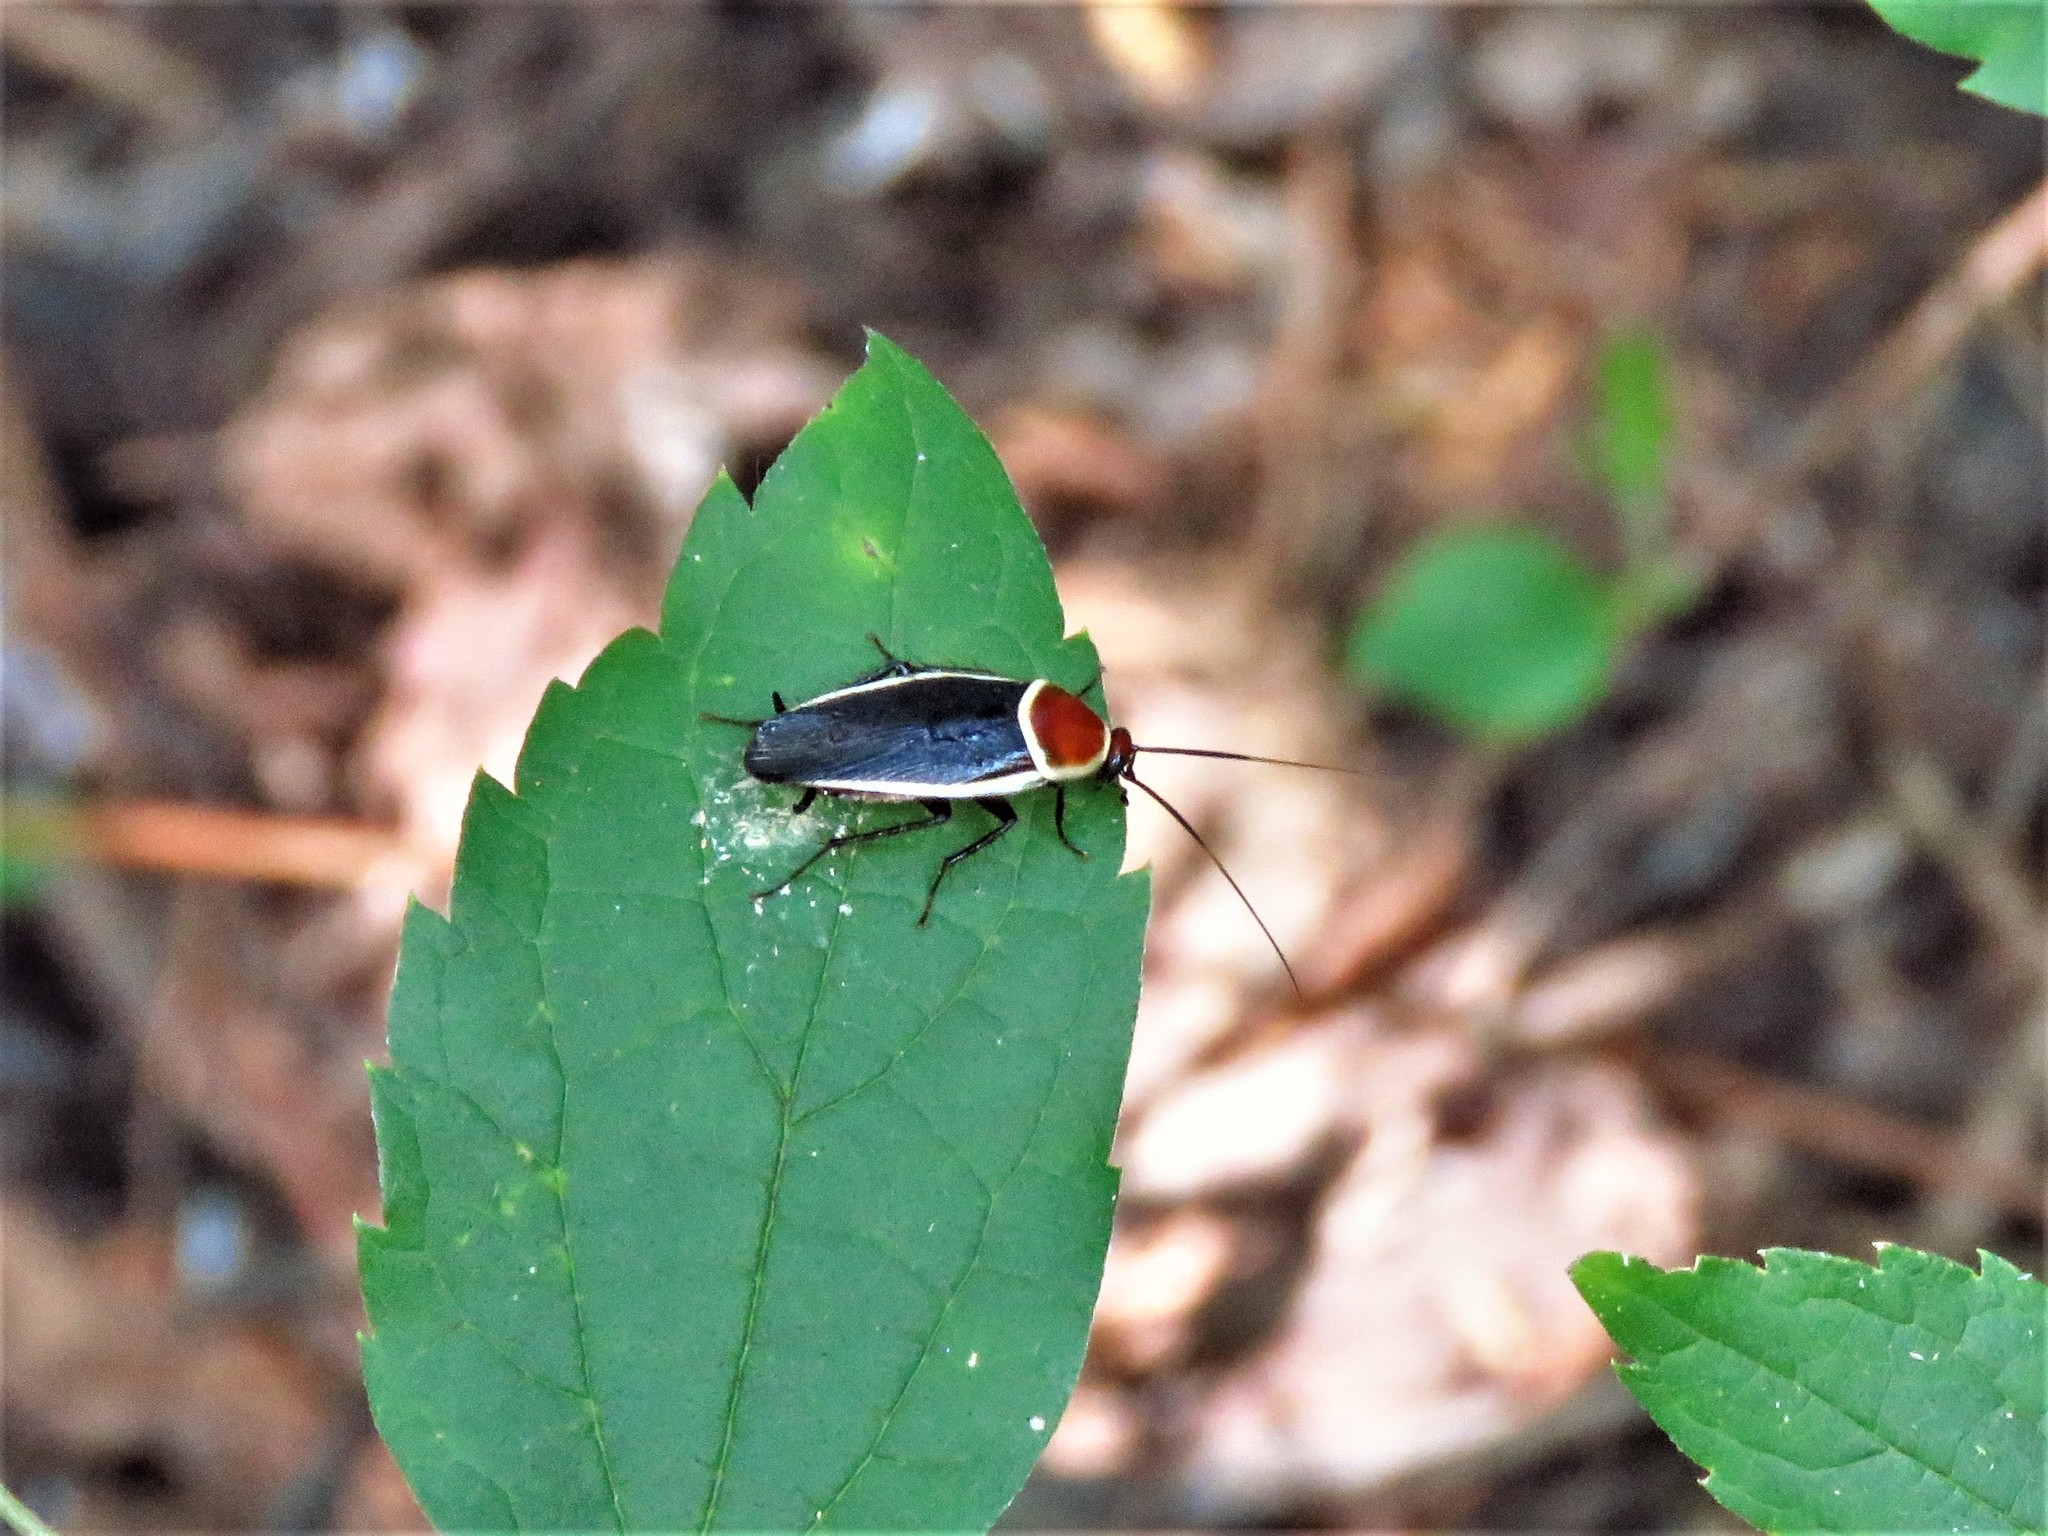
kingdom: Animalia
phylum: Arthropoda
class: Insecta
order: Blattodea
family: Ectobiidae
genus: Pseudomops
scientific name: Pseudomops septentrionalis
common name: Pale-bordered field cockroach
